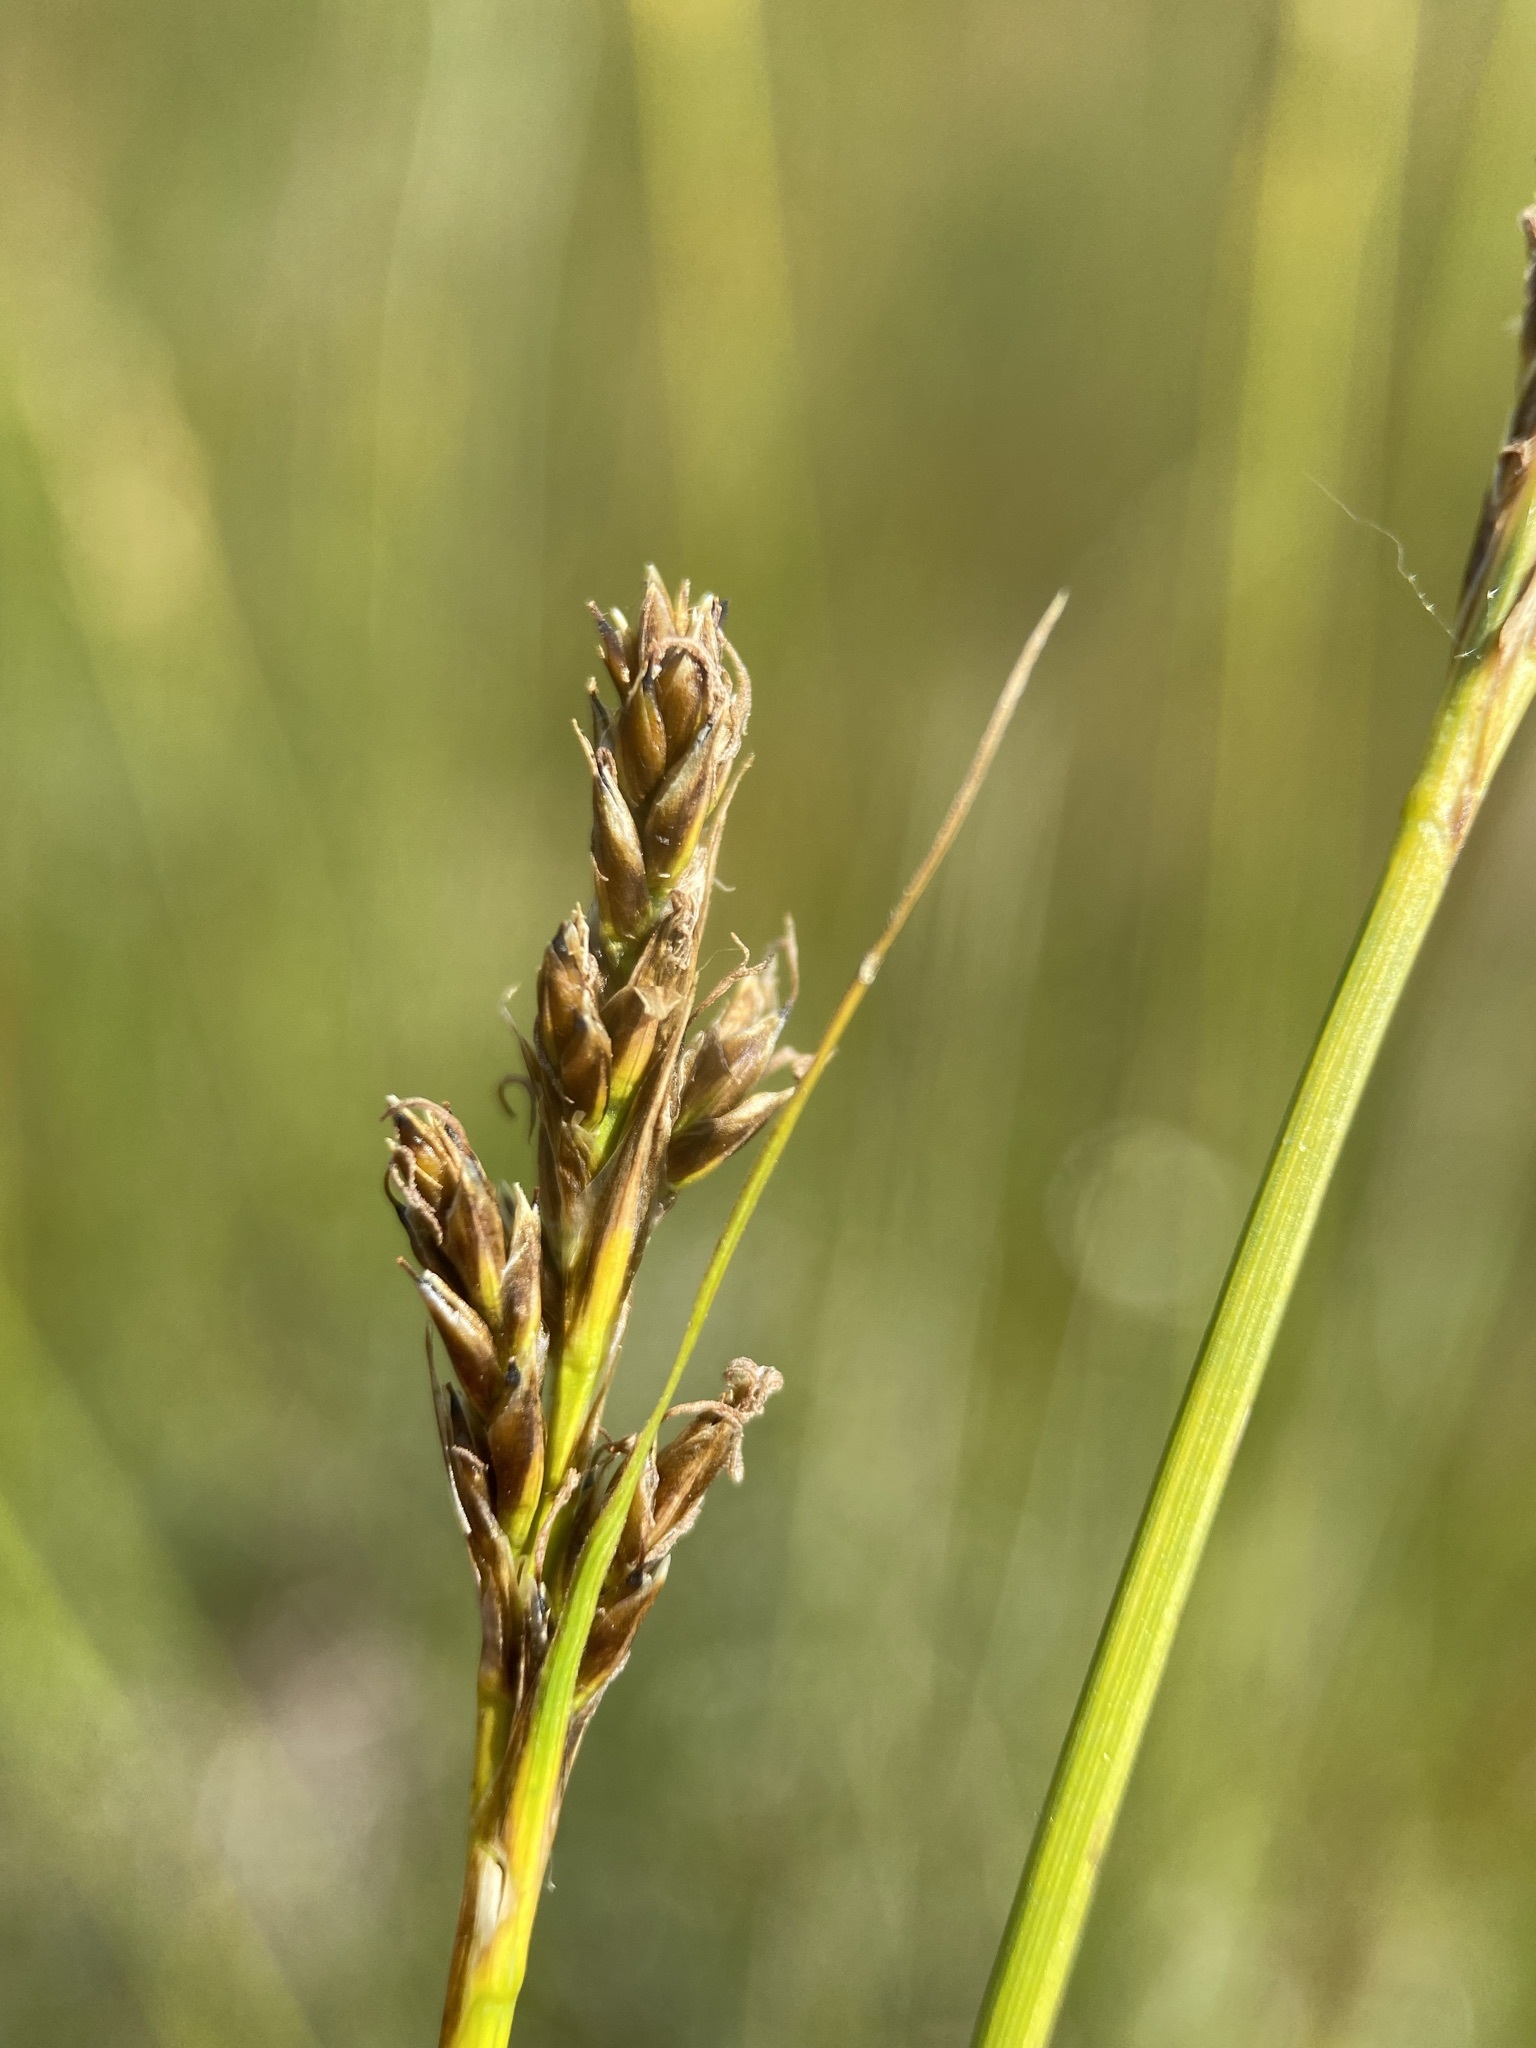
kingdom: Plantae
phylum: Tracheophyta
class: Liliopsida
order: Poales
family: Cyperaceae
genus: Carex
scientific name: Carex simpliciuscula
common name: Simple bog sedge
